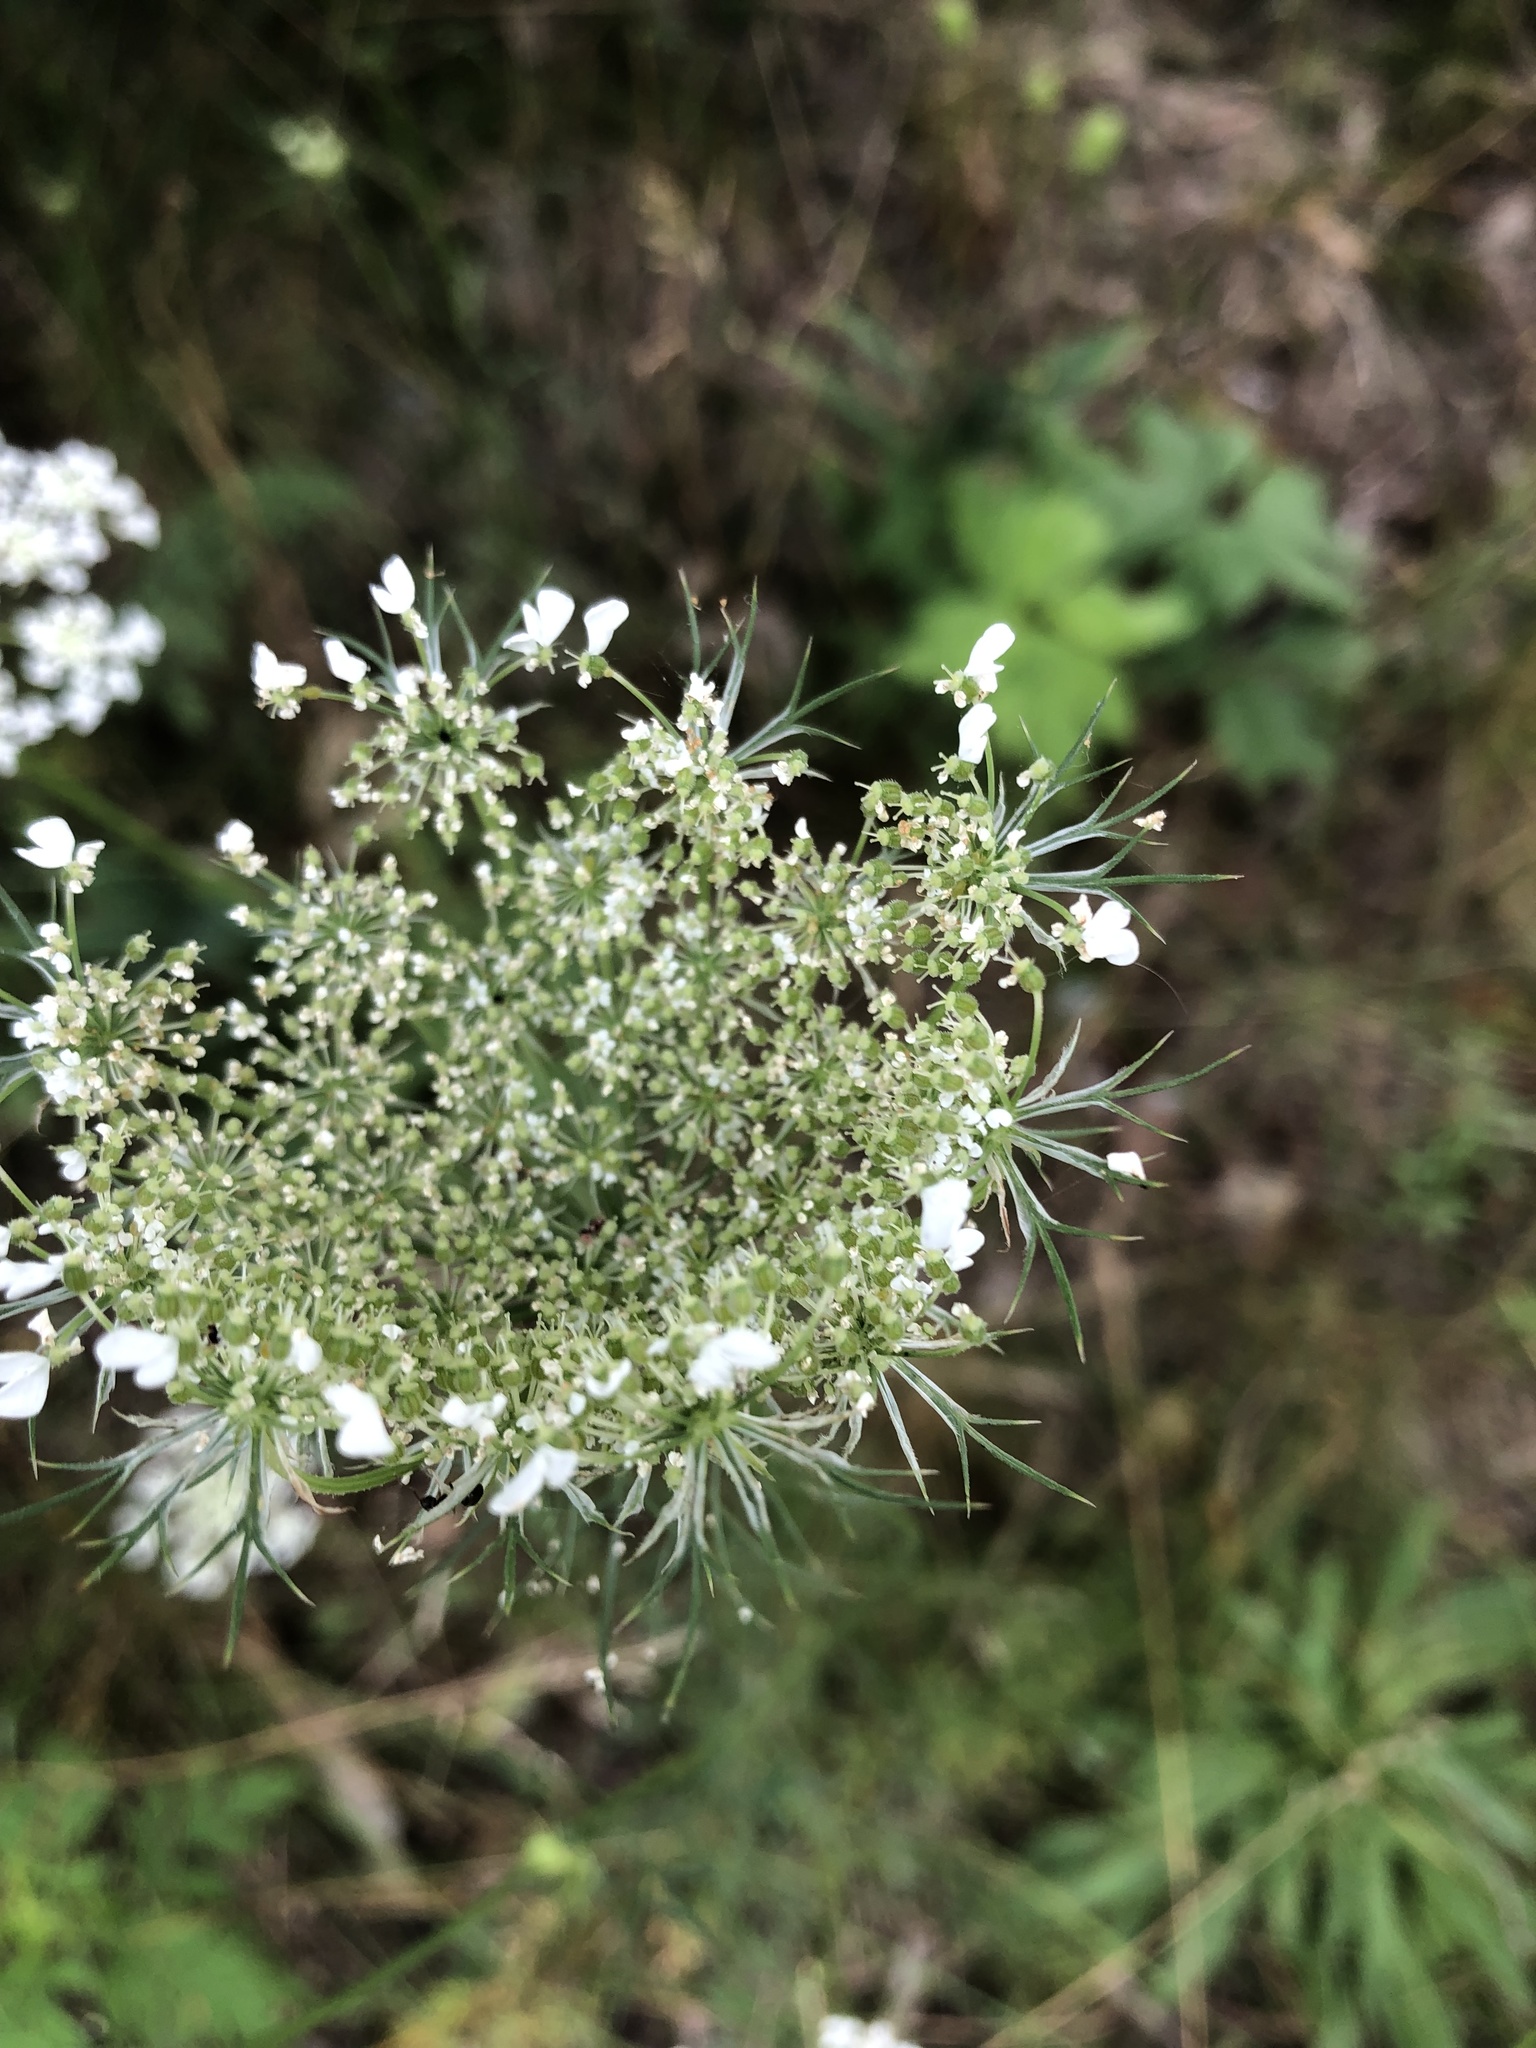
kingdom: Plantae
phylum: Tracheophyta
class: Magnoliopsida
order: Apiales
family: Apiaceae
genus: Daucus
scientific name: Daucus carota
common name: Wild carrot
